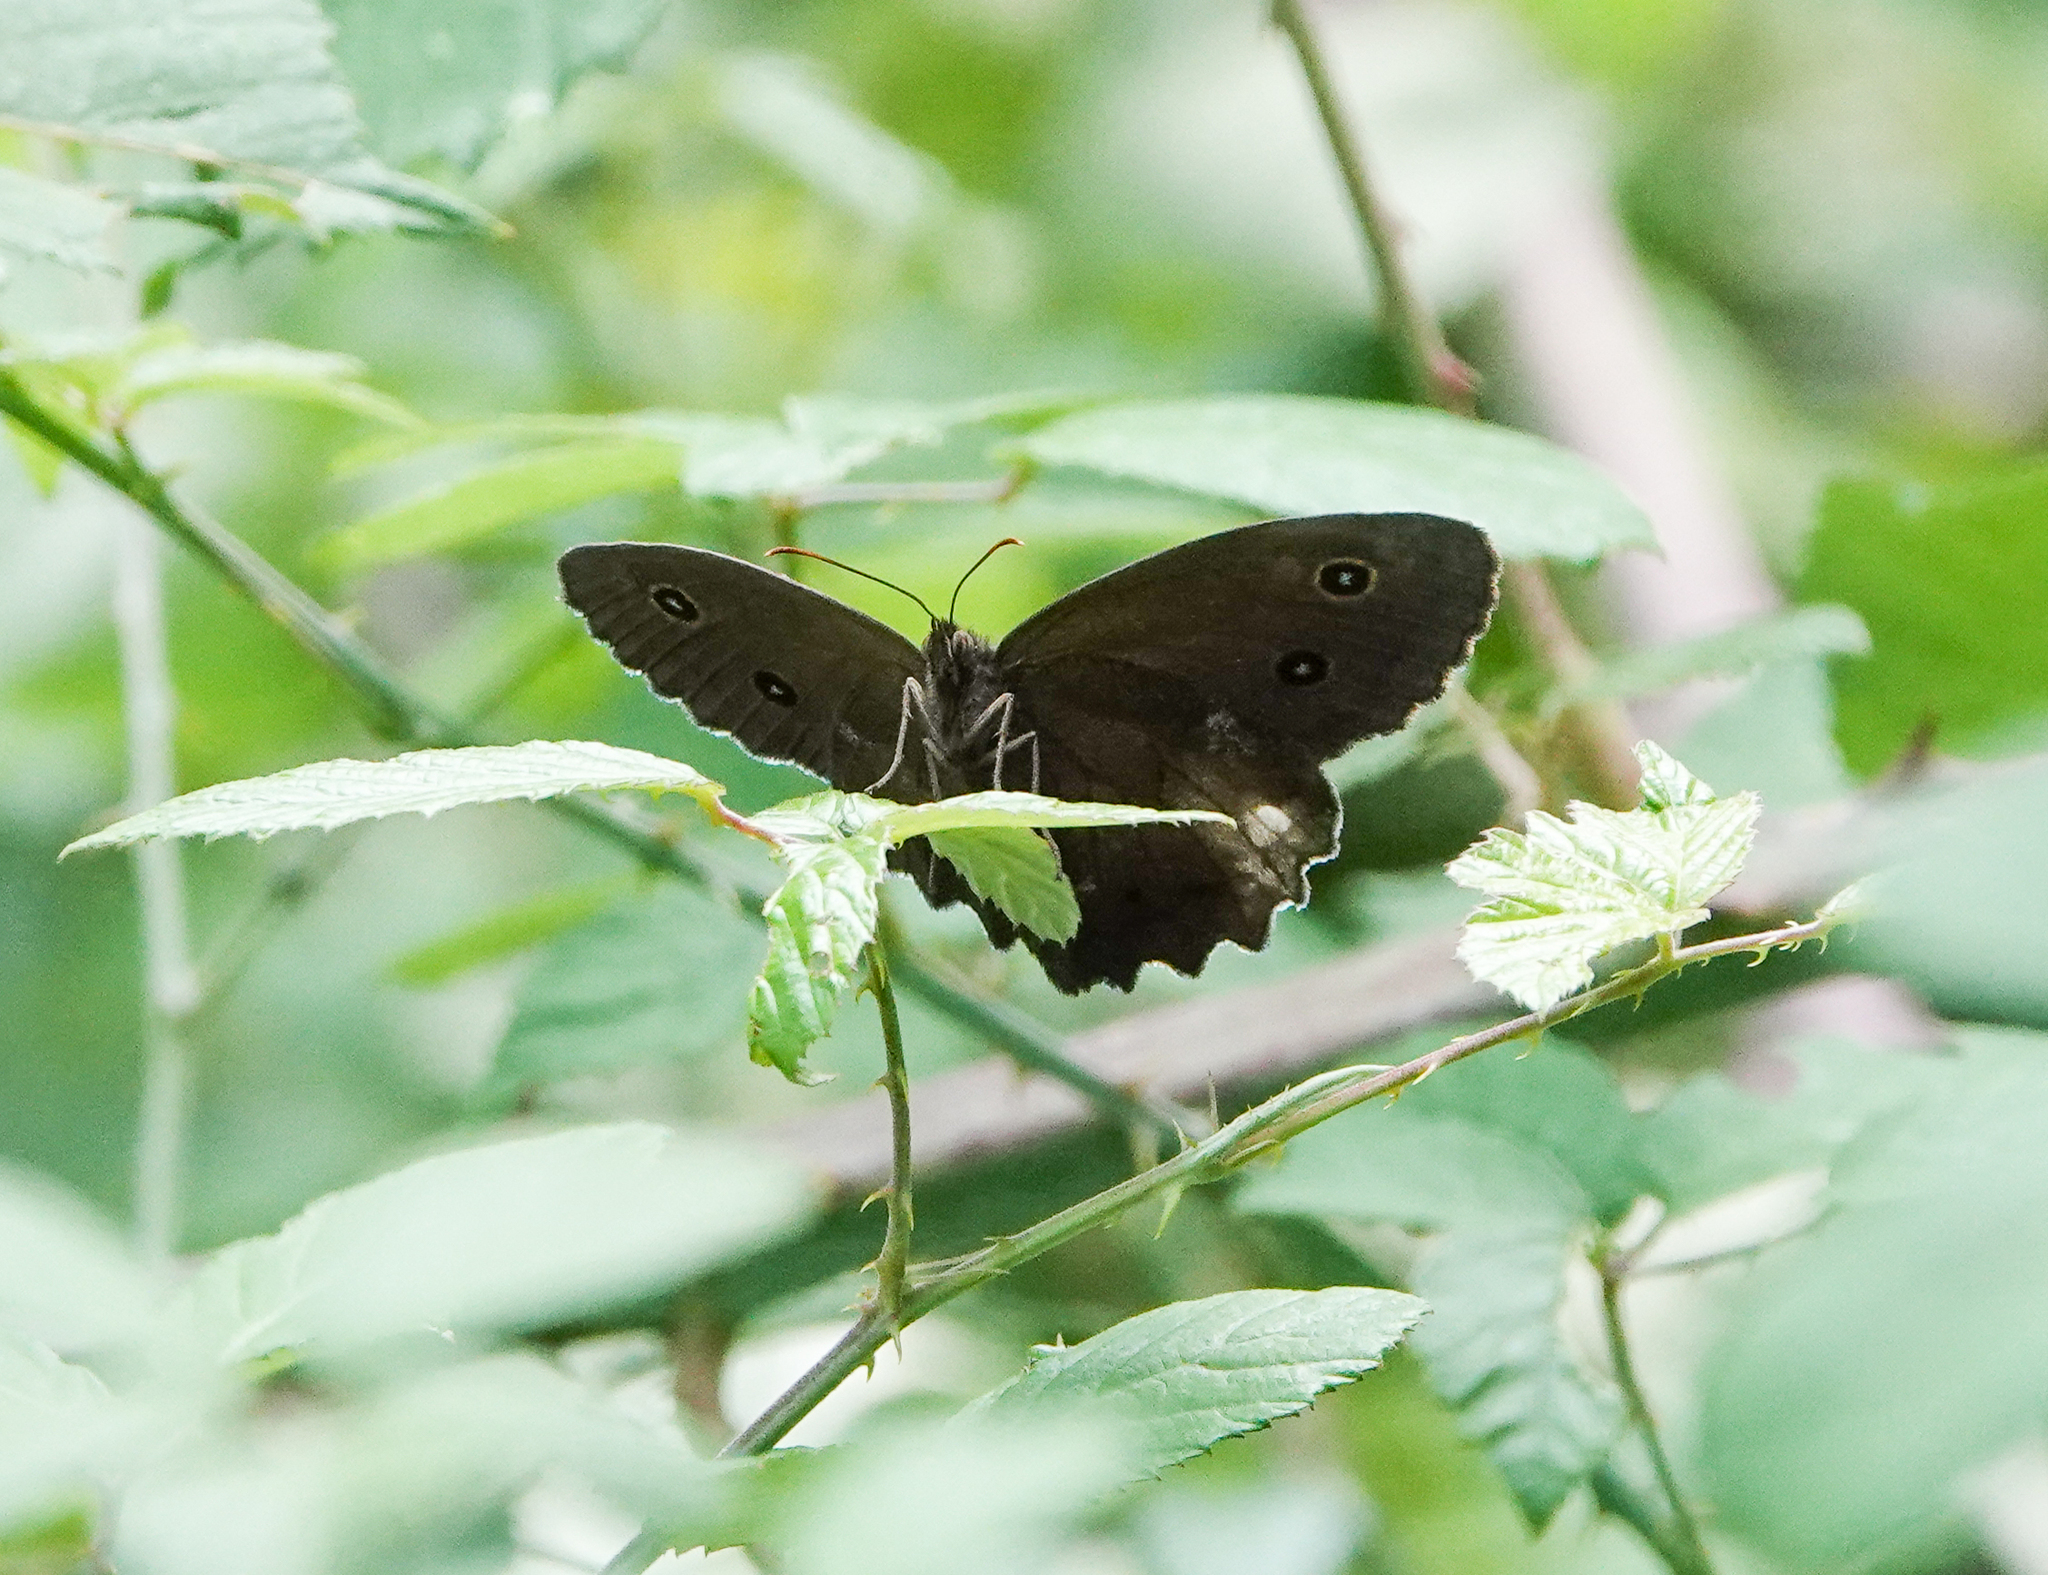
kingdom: Animalia
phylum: Arthropoda
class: Insecta
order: Lepidoptera
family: Nymphalidae
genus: Minois
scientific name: Minois dryas
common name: Dryad
